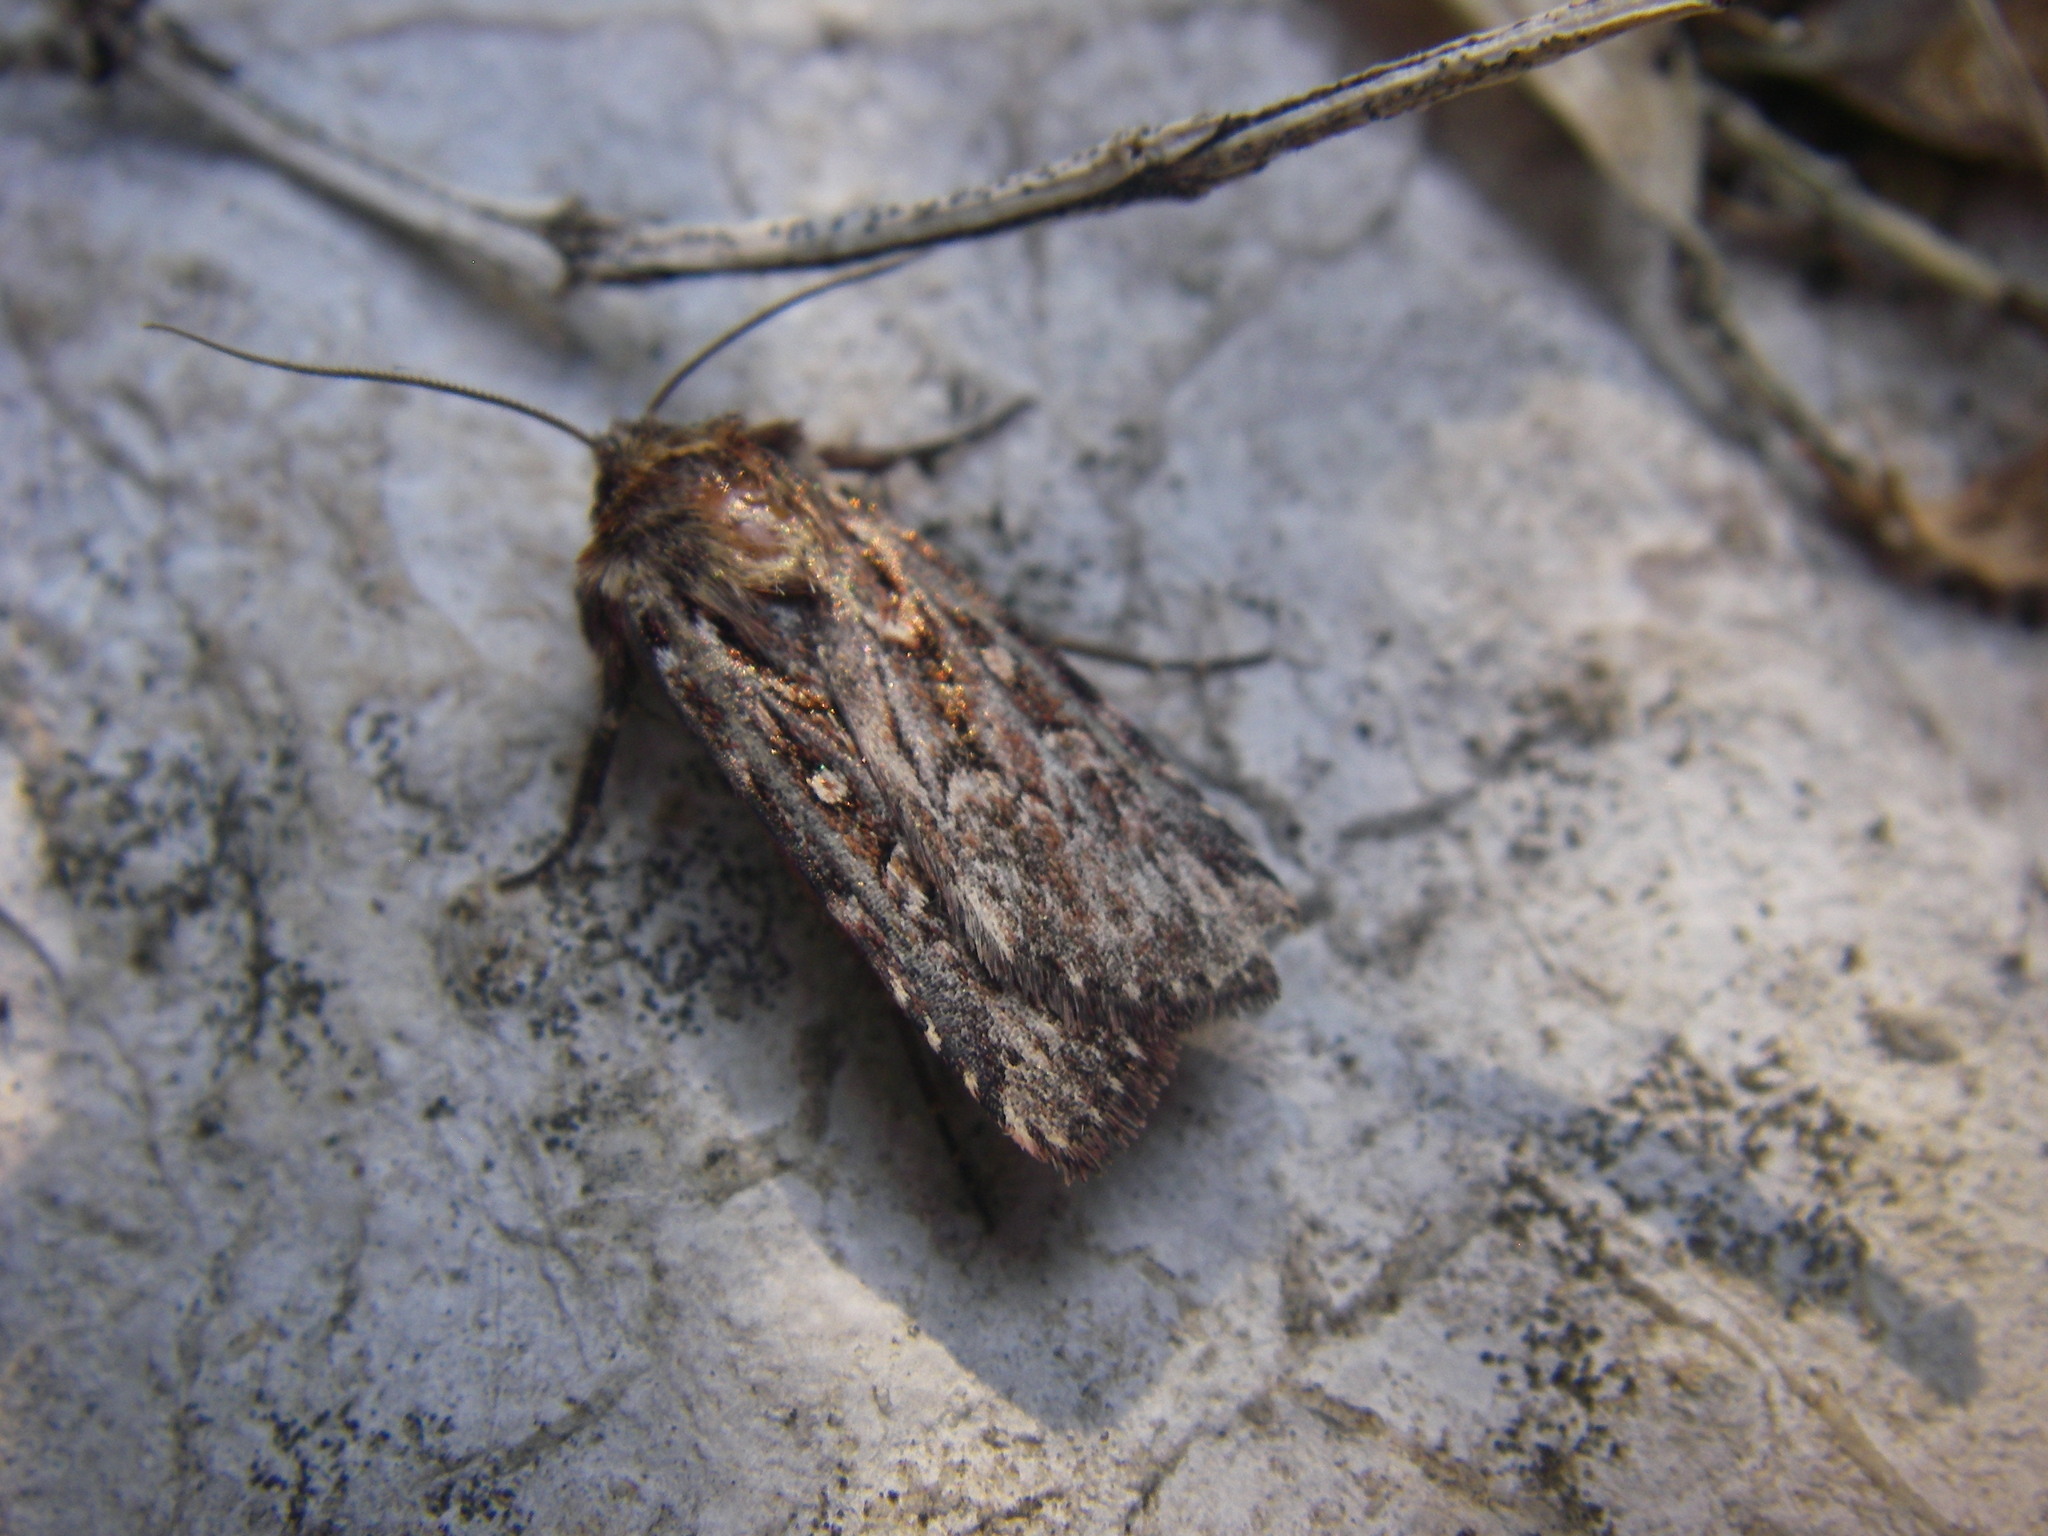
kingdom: Animalia
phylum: Arthropoda
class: Insecta
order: Lepidoptera
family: Noctuidae
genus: Lycophotia
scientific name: Lycophotia porphyrea
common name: True lover's knot
